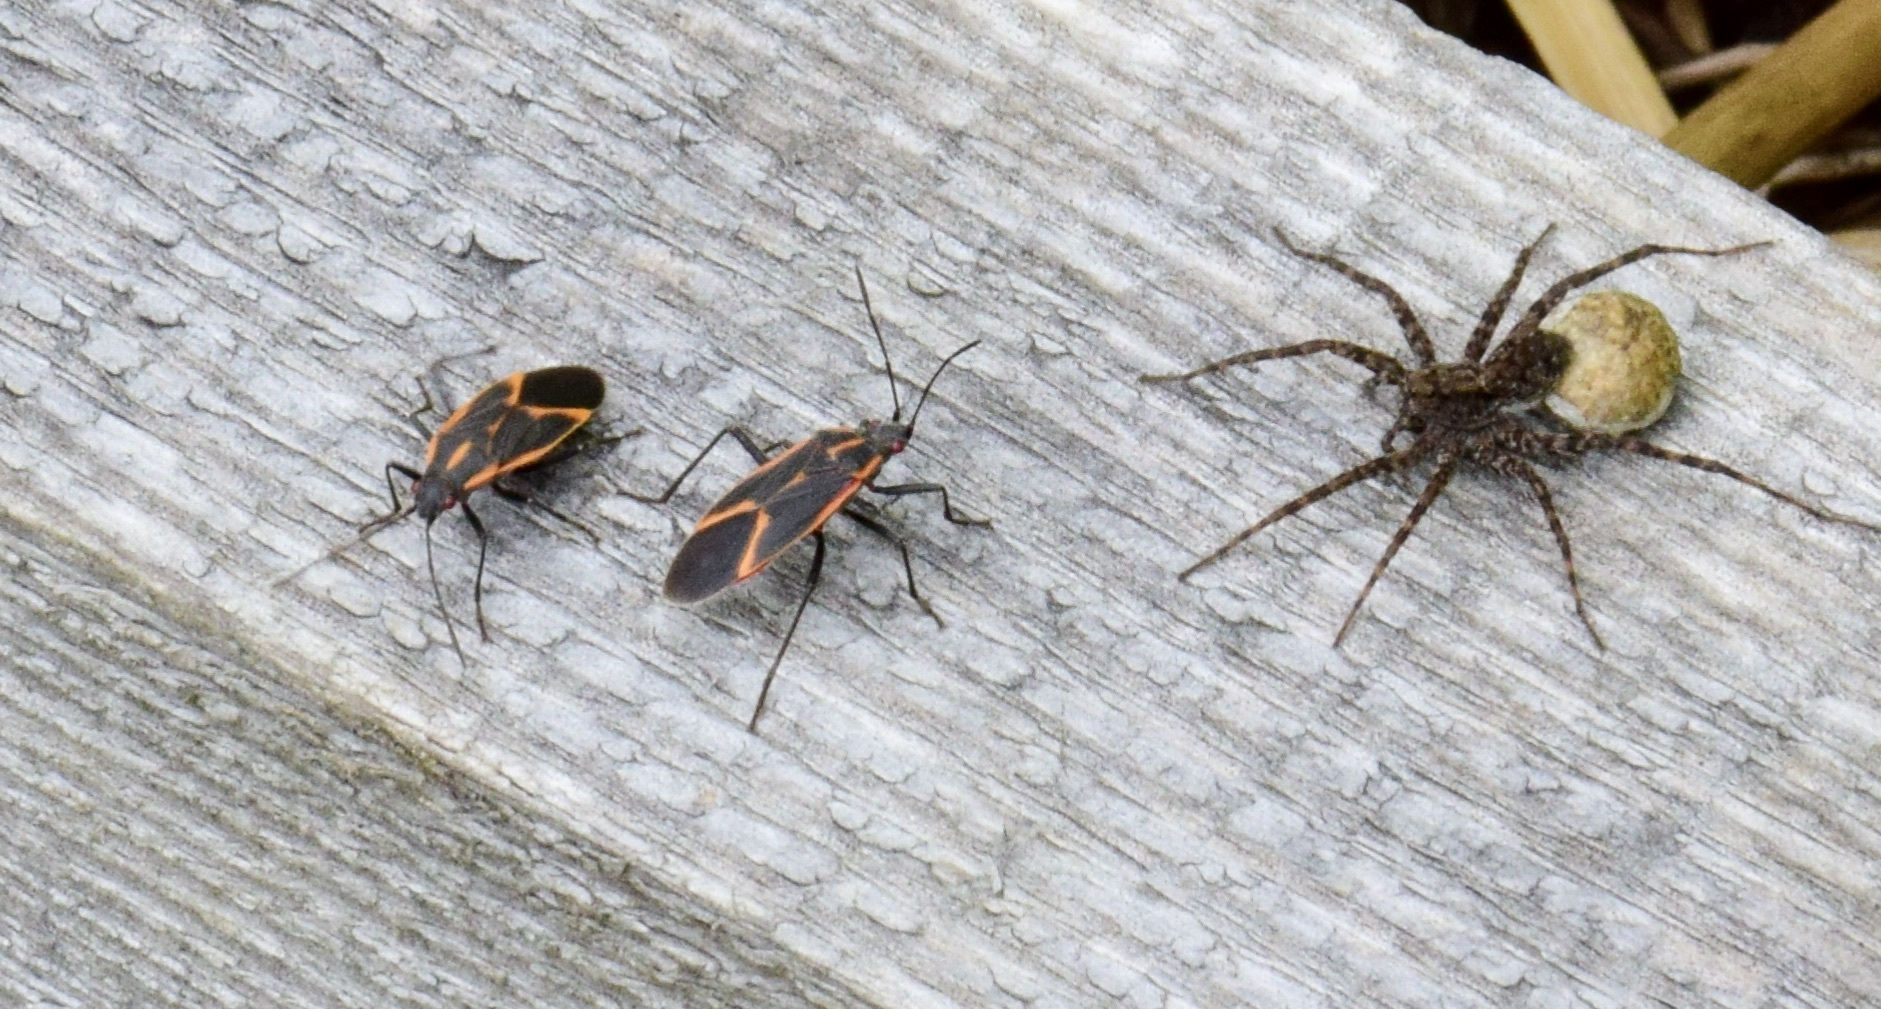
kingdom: Animalia
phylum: Arthropoda
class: Insecta
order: Hemiptera
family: Rhopalidae
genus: Boisea
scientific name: Boisea trivittata
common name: Boxelder bug
